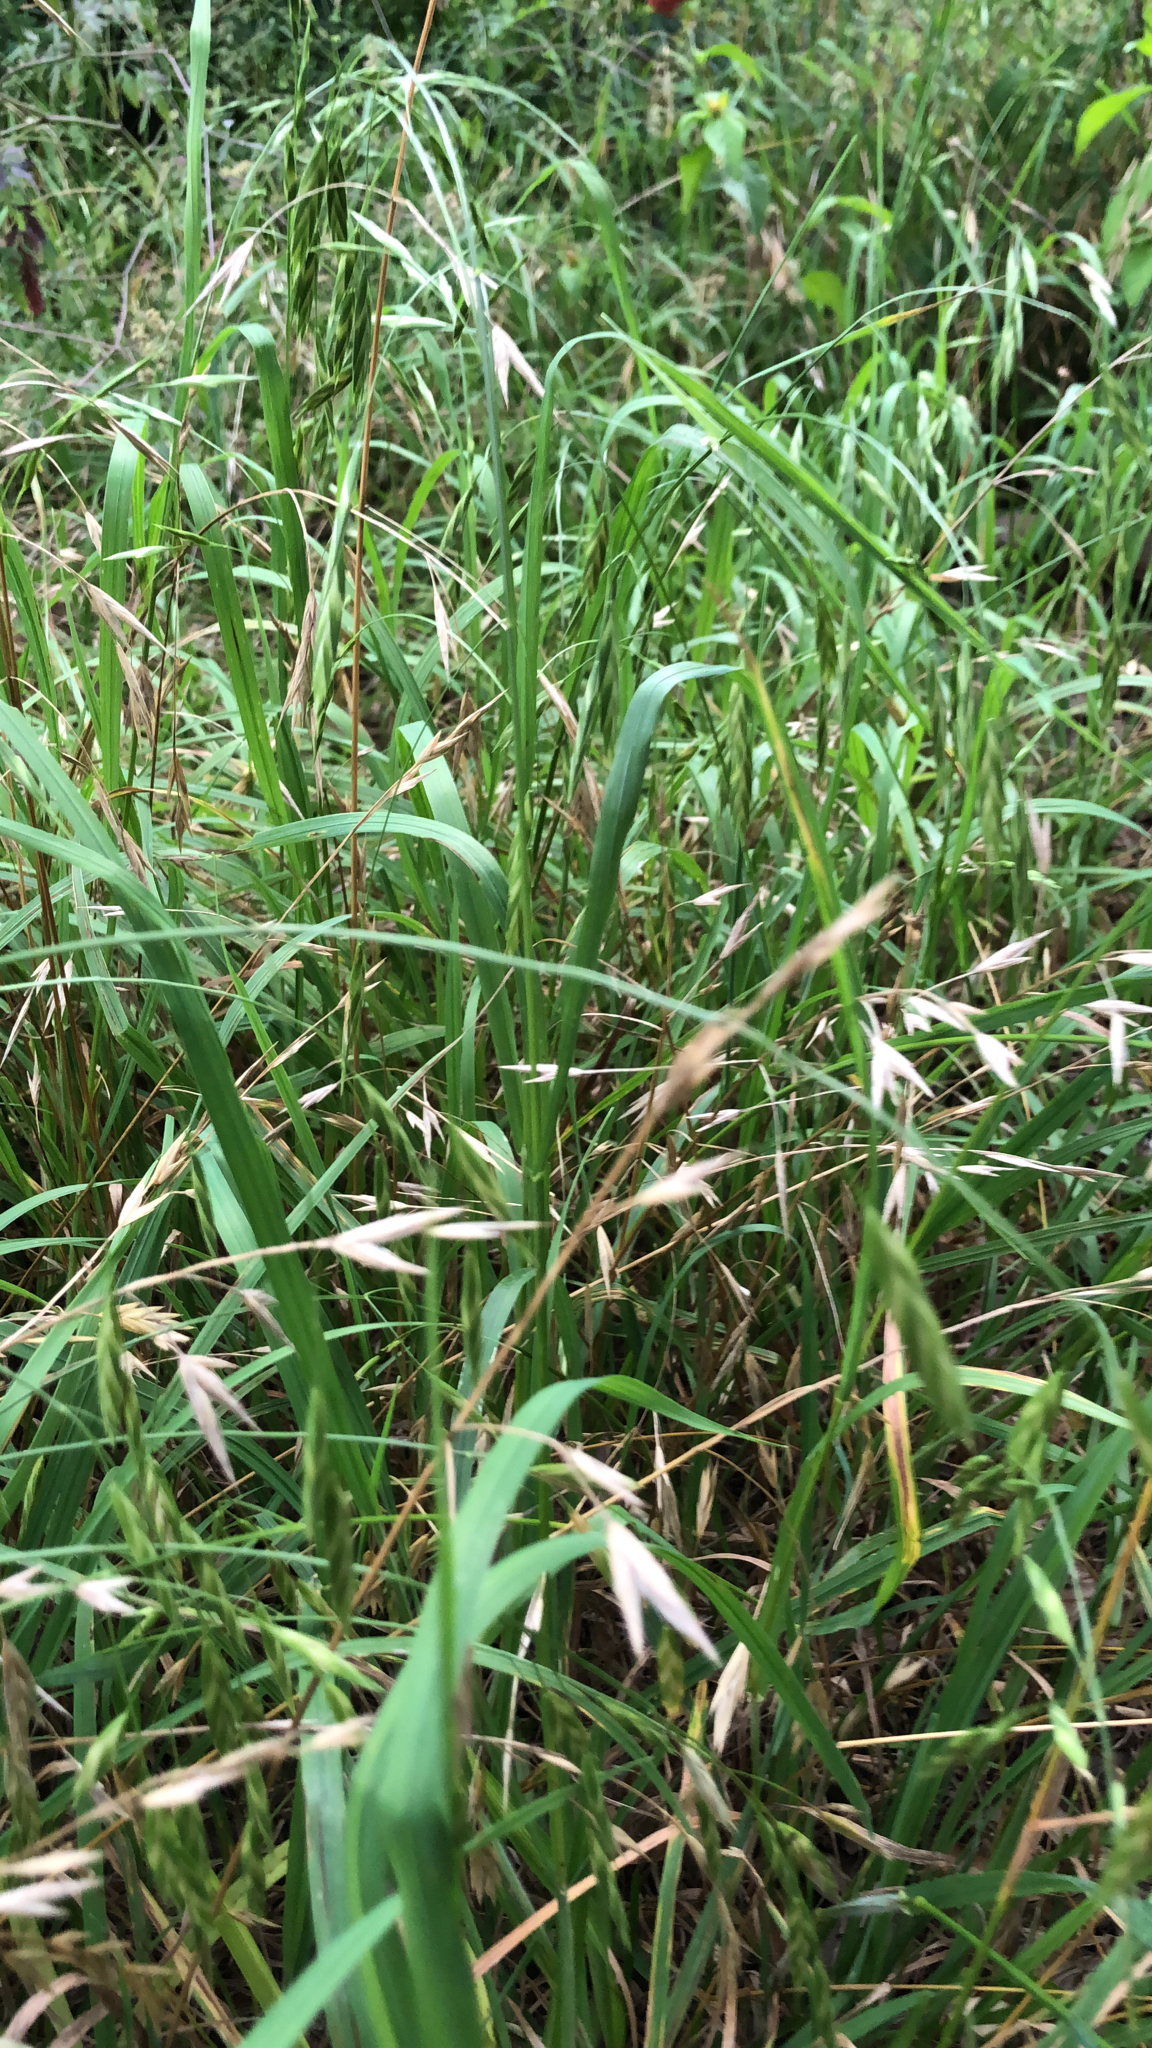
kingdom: Plantae
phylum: Tracheophyta
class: Liliopsida
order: Poales
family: Poaceae
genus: Bromus
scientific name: Bromus catharticus
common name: Rescuegrass
